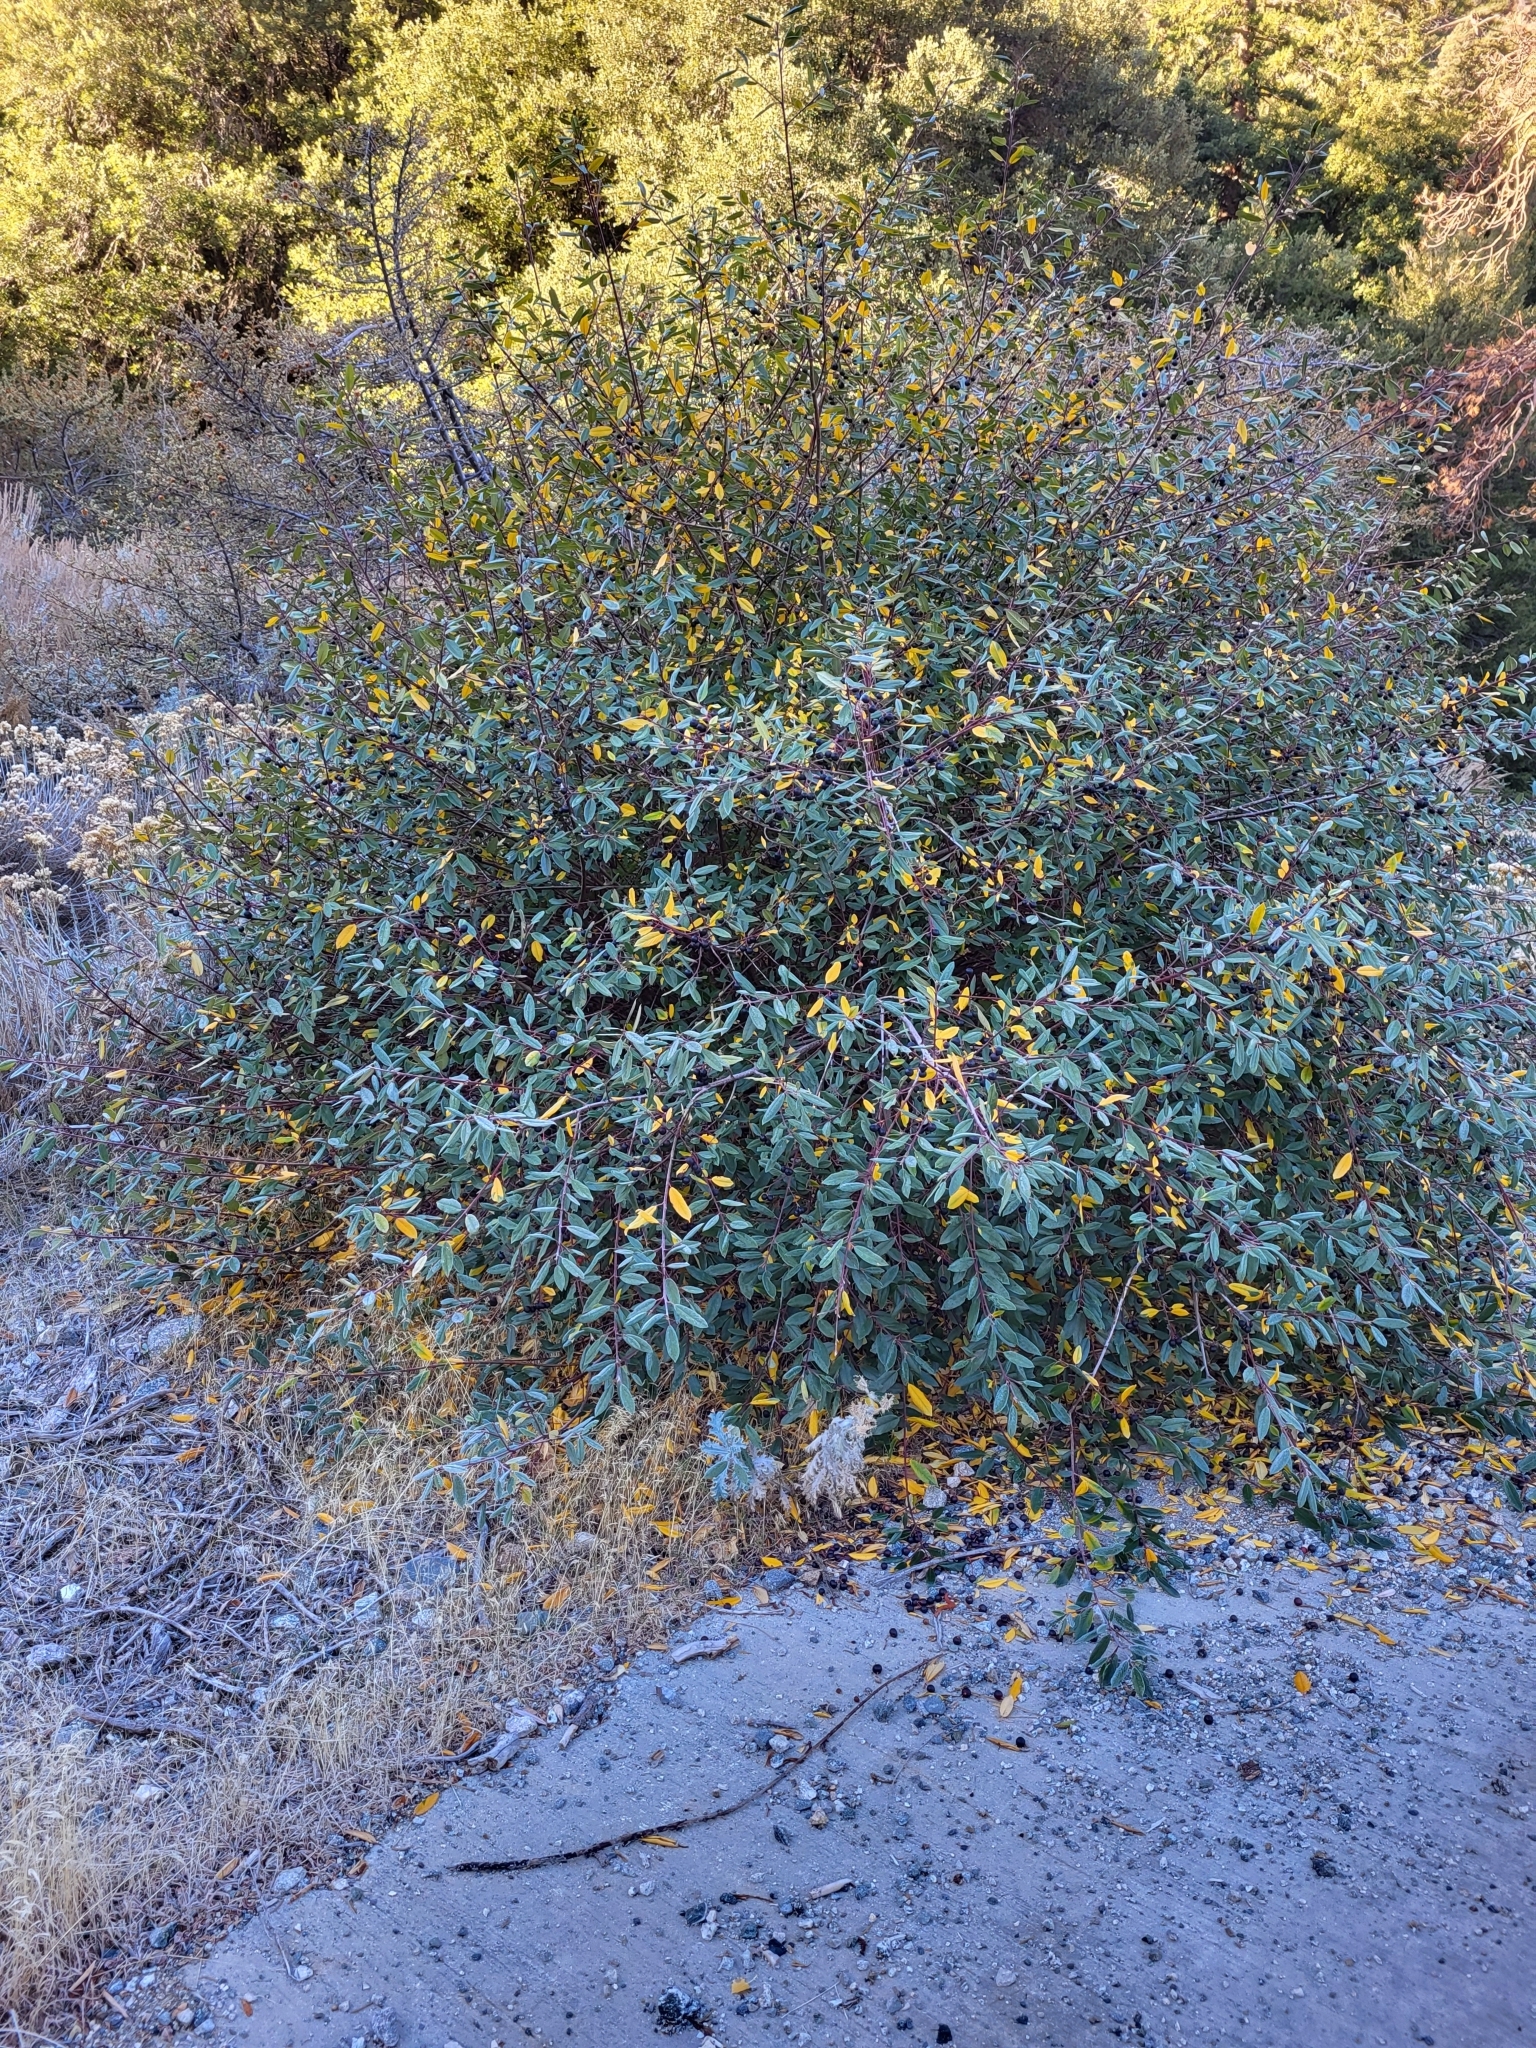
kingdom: Plantae
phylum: Tracheophyta
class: Magnoliopsida
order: Rosales
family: Rhamnaceae
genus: Frangula
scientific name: Frangula californica
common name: California buckthorn
